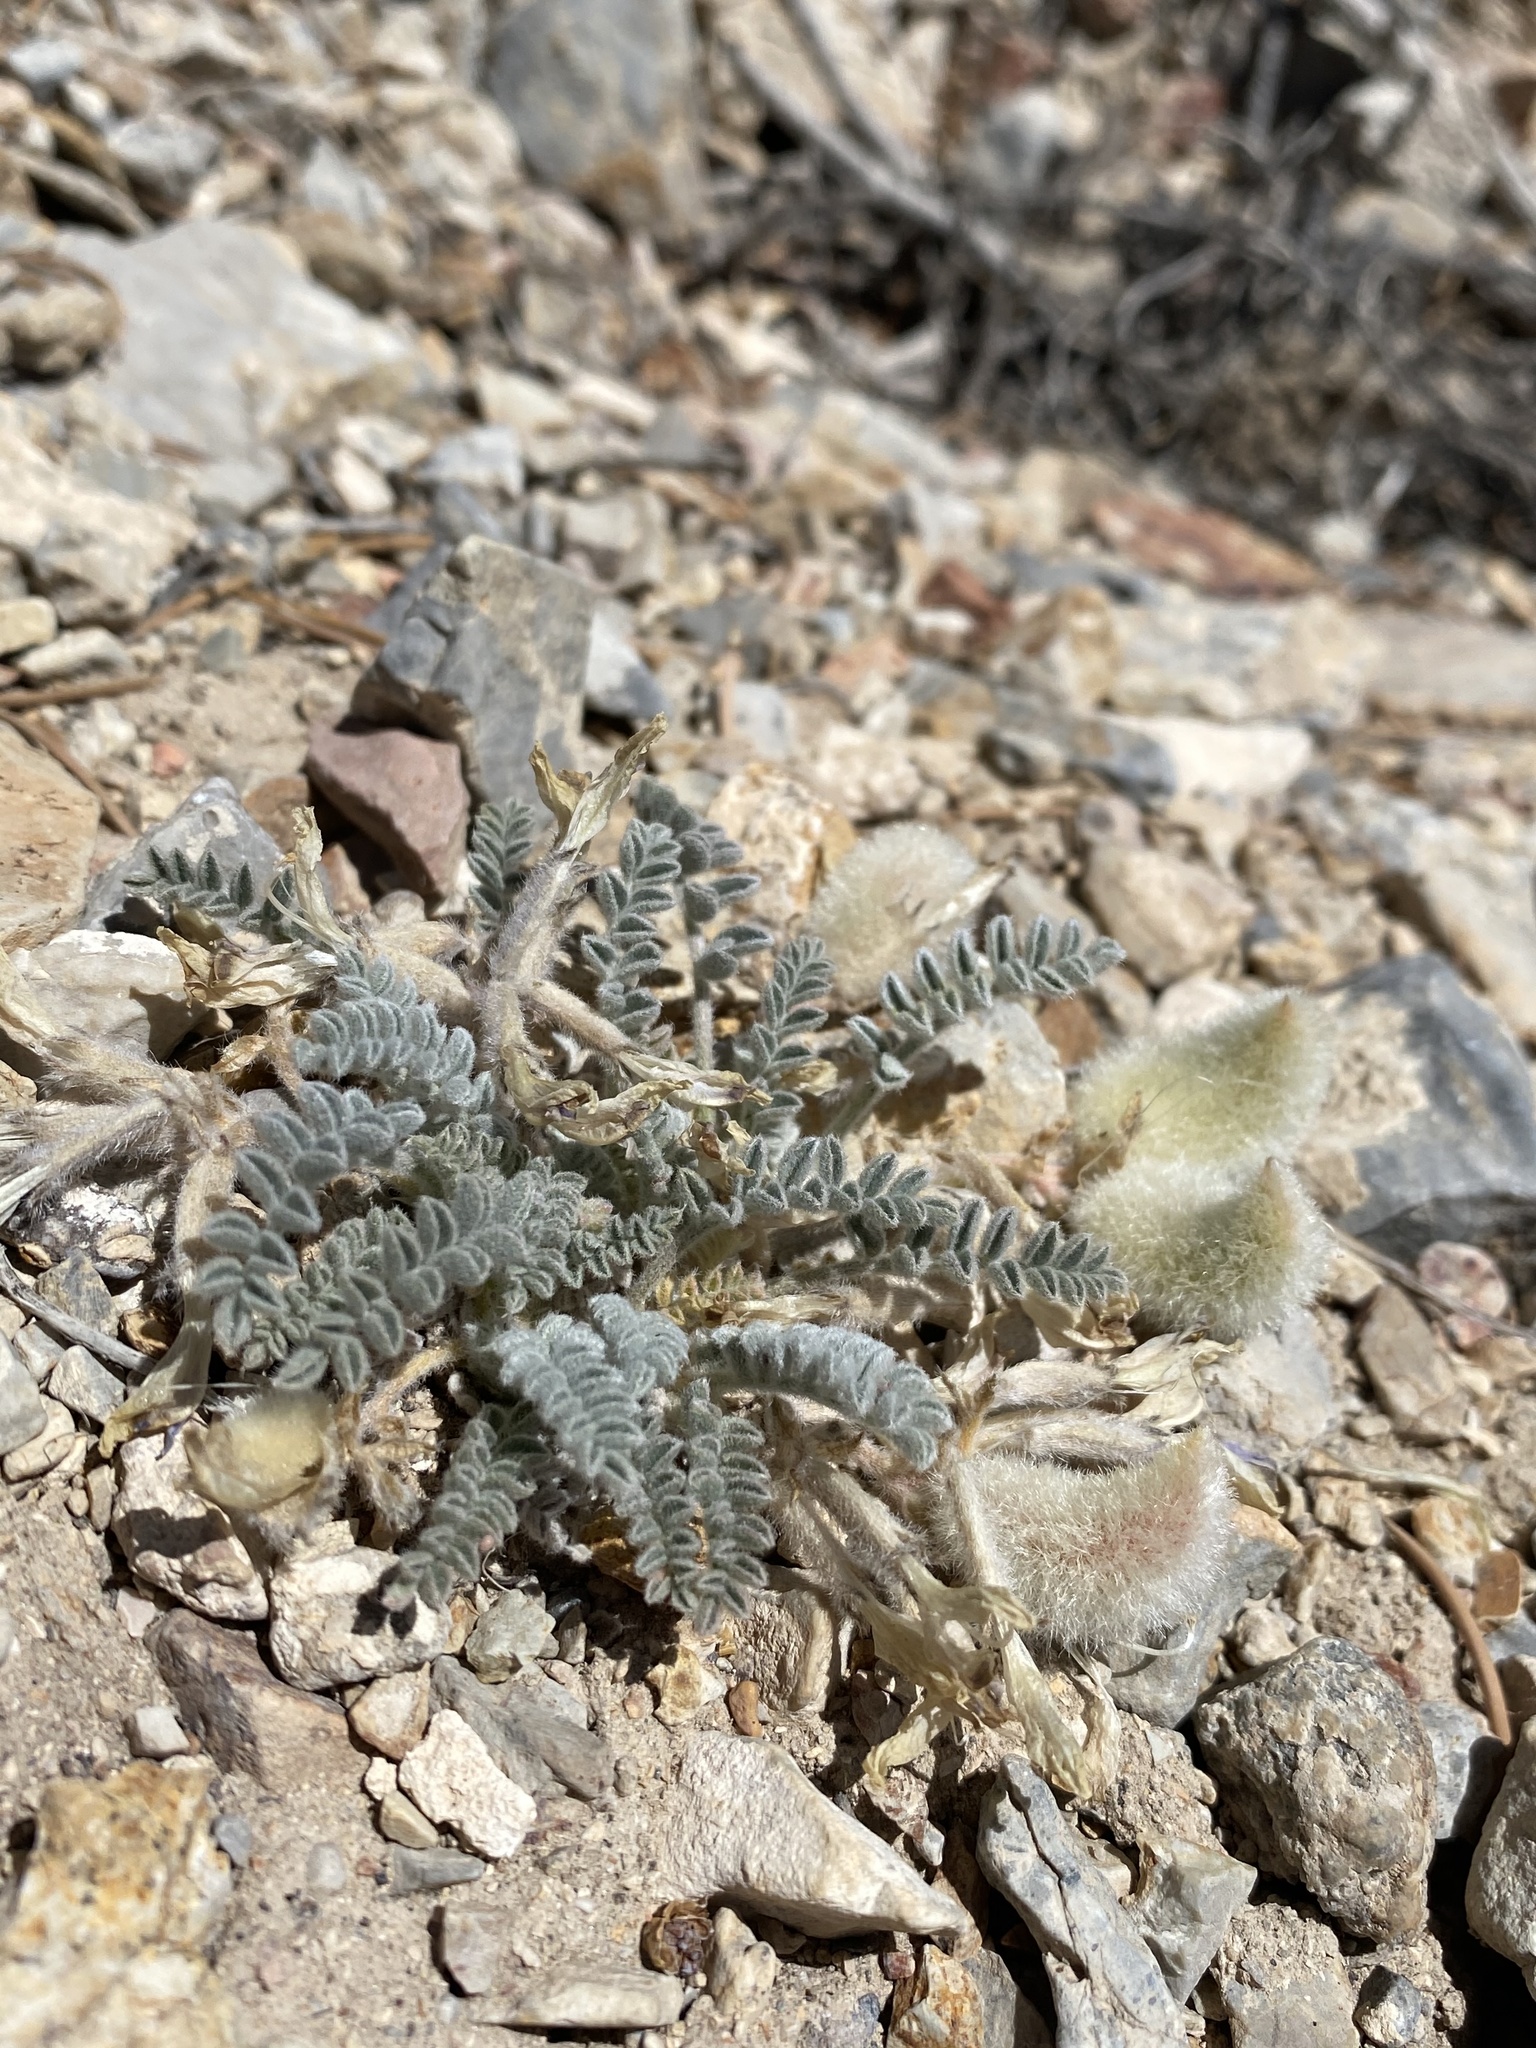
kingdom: Plantae
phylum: Tracheophyta
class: Magnoliopsida
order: Fabales
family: Fabaceae
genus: Astragalus
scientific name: Astragalus purshii
